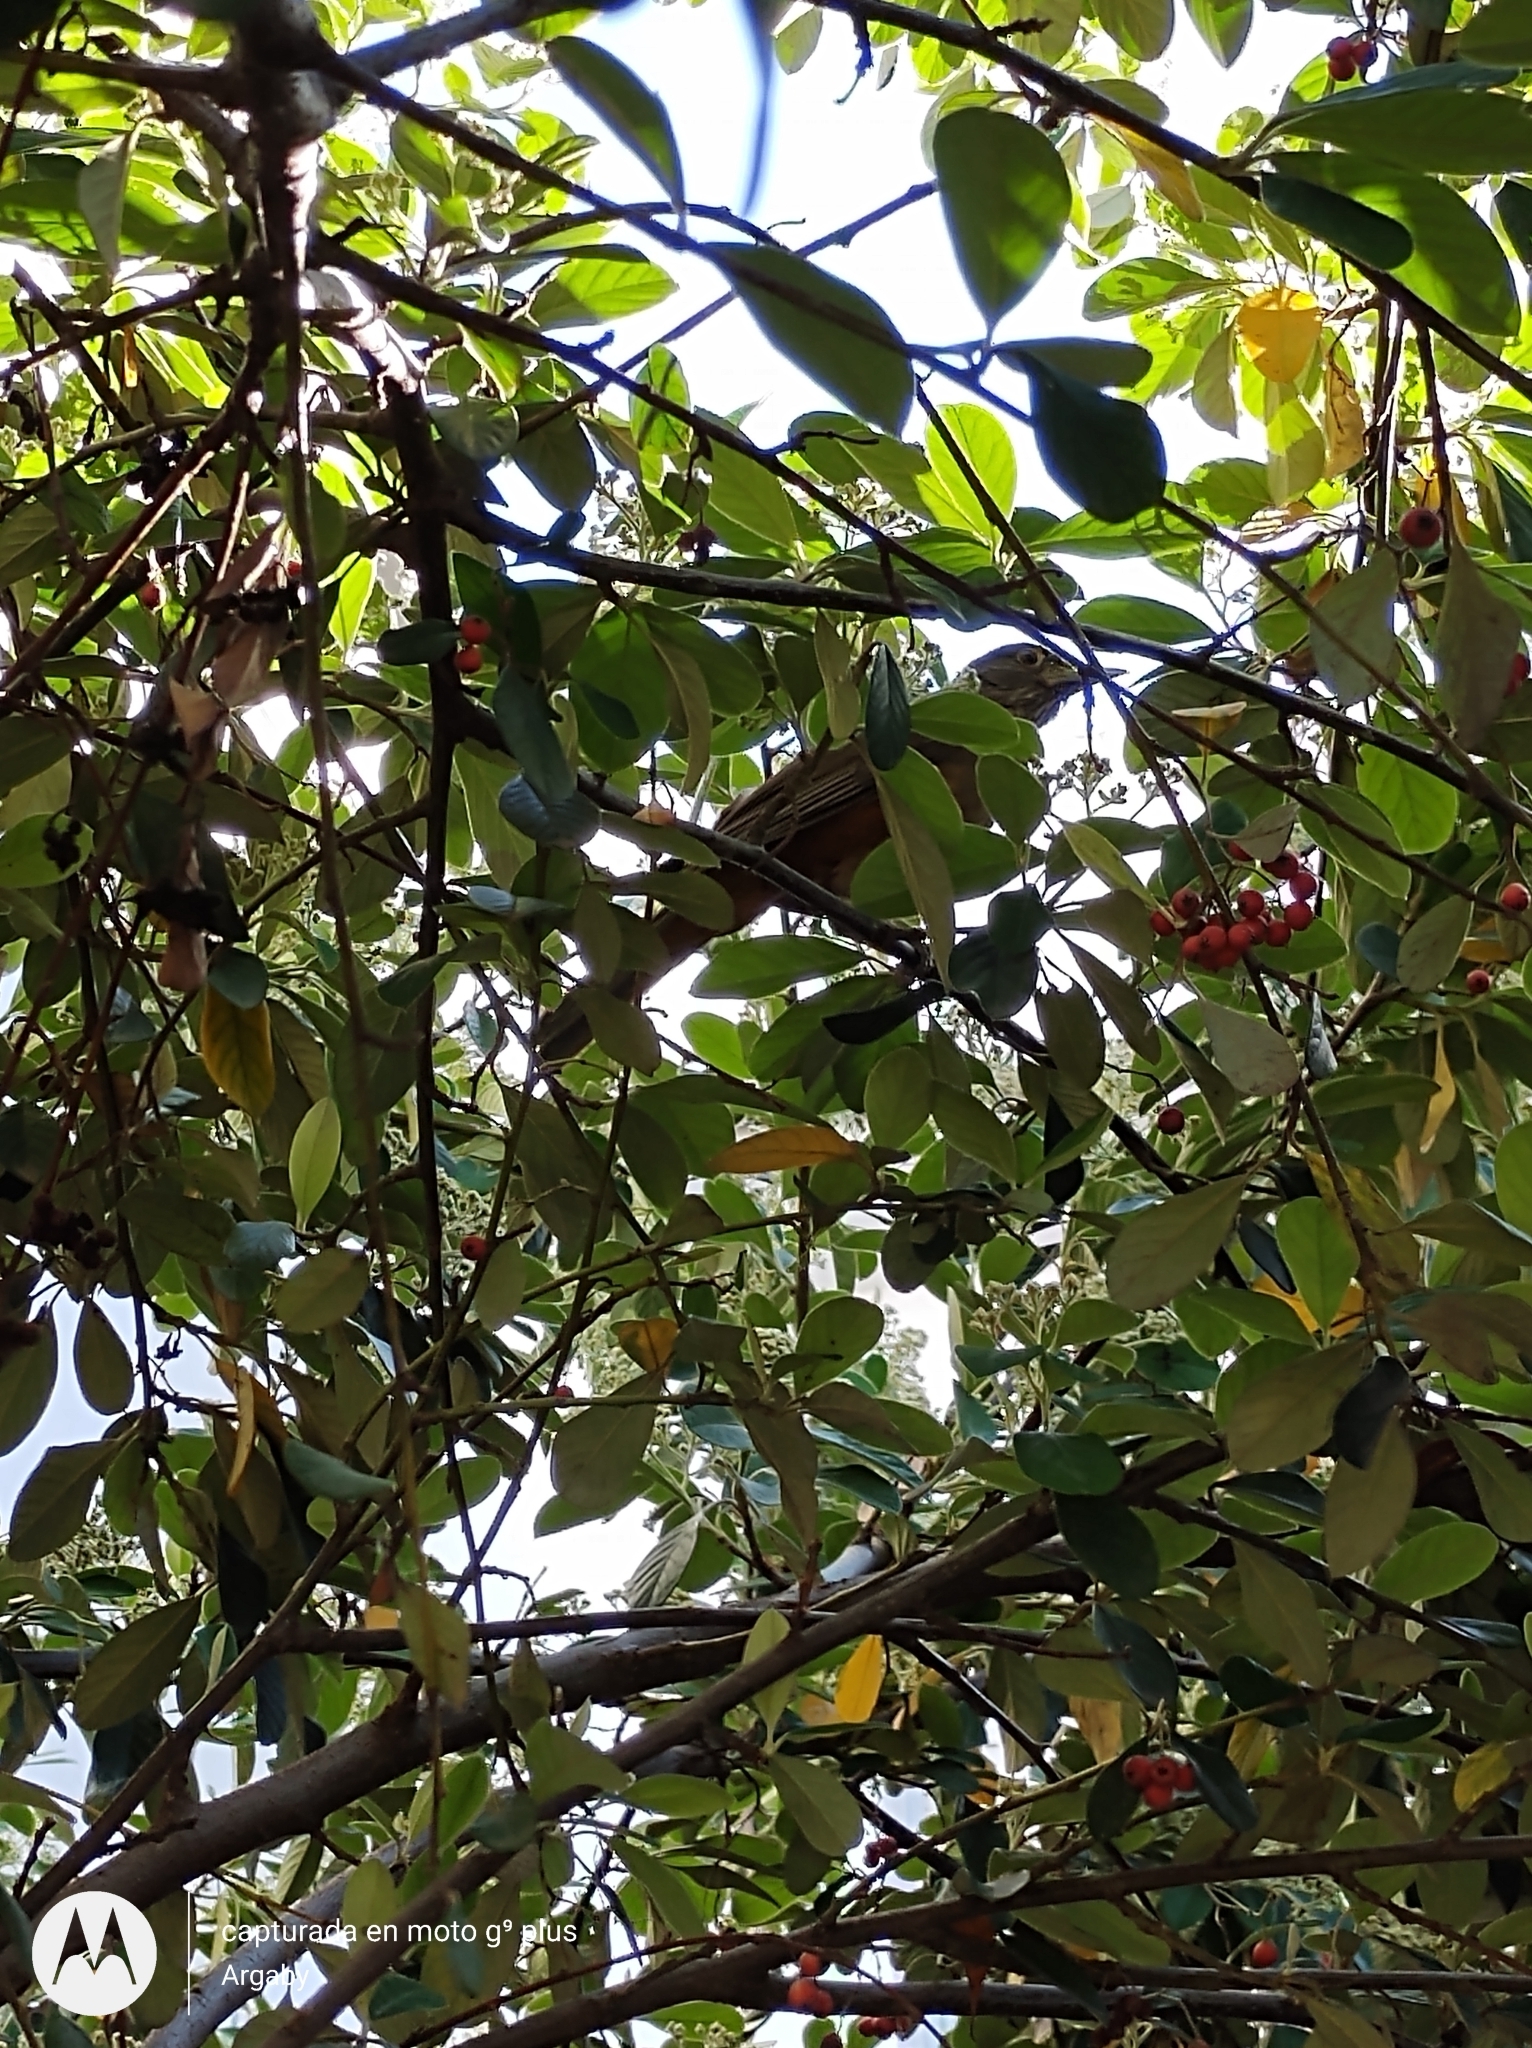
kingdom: Animalia
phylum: Chordata
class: Aves
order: Passeriformes
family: Turdidae
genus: Turdus
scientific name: Turdus rufiventris
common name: Rufous-bellied thrush
